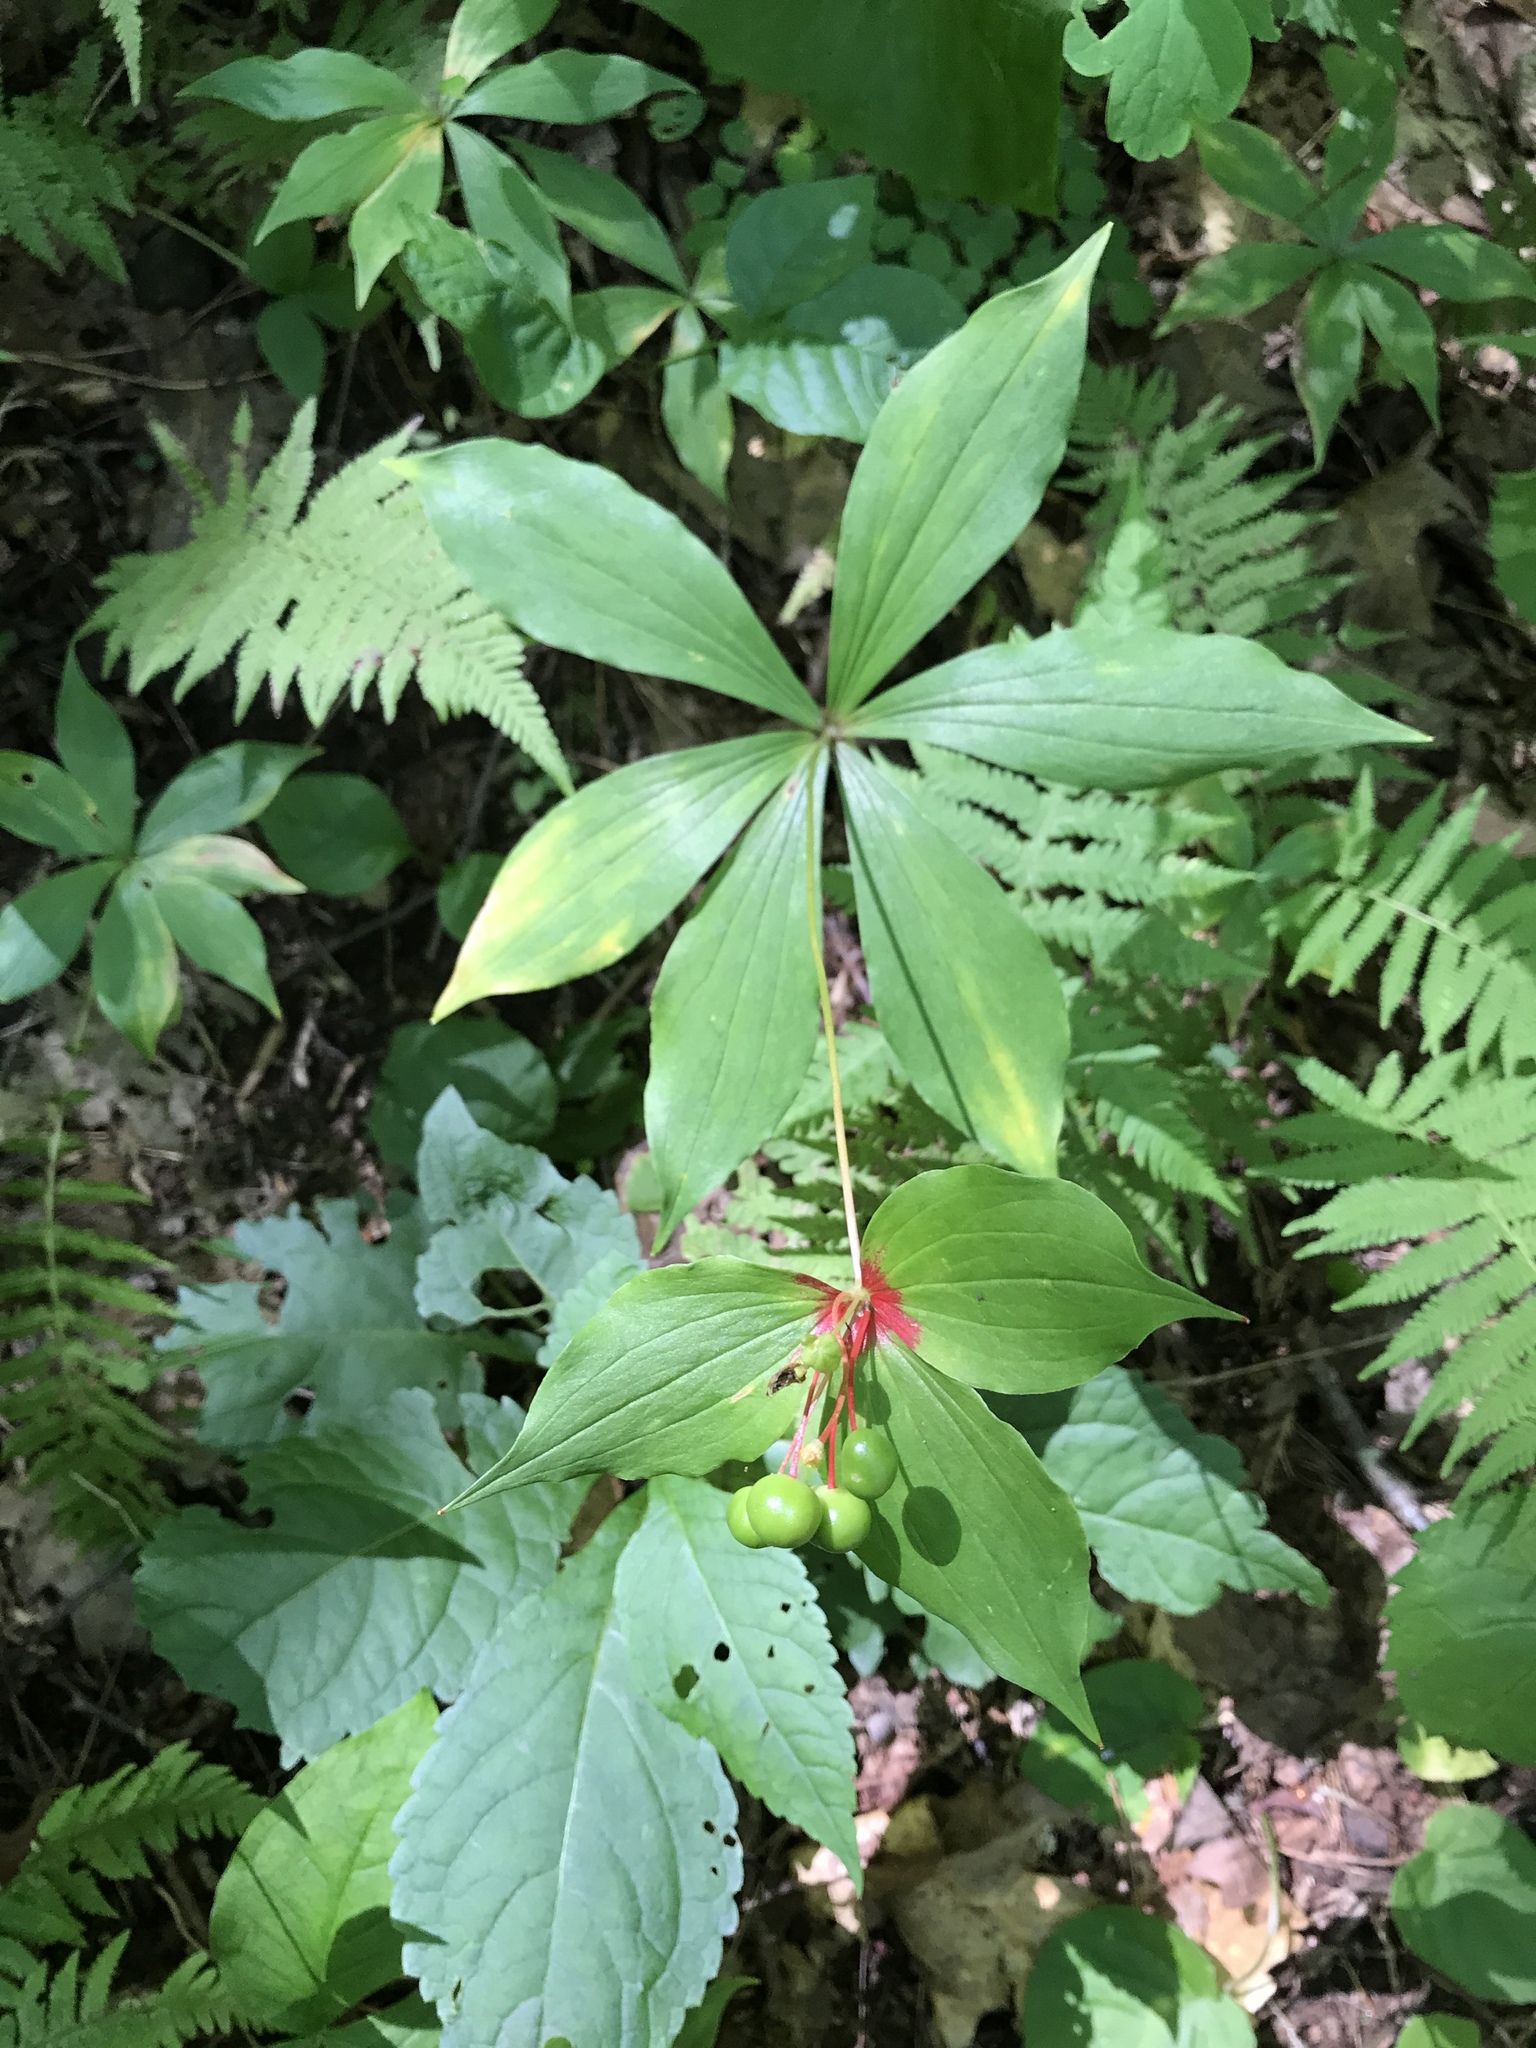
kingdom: Plantae
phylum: Tracheophyta
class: Liliopsida
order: Liliales
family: Liliaceae
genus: Medeola
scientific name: Medeola virginiana
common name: Indian cucumber-root
